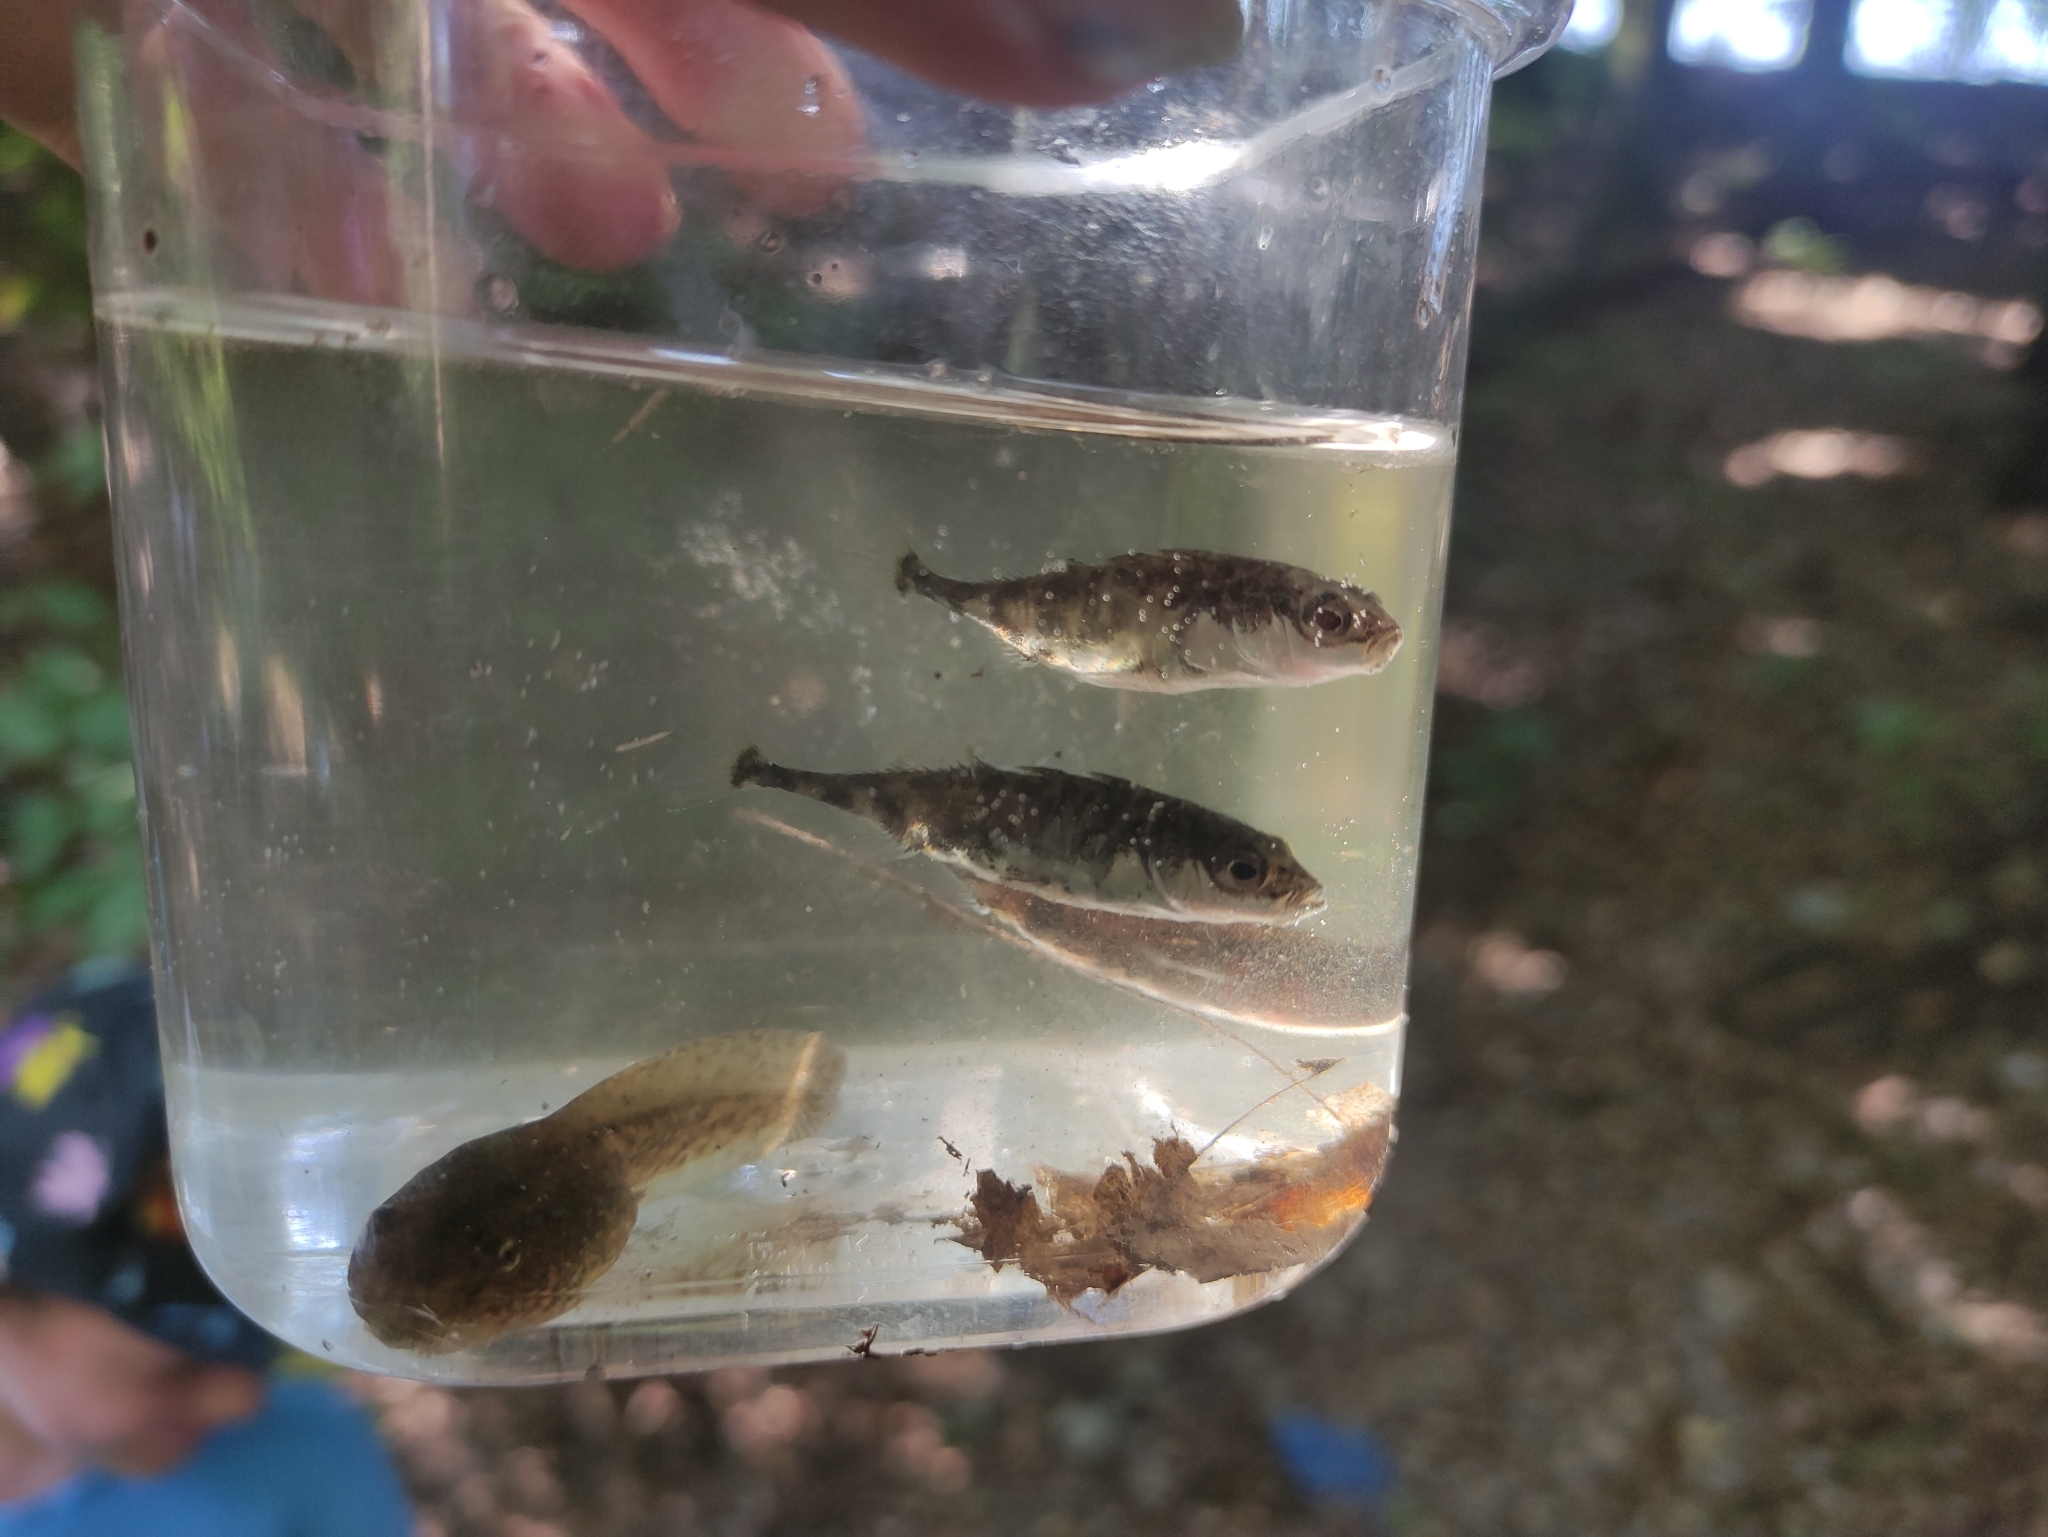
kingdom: Animalia
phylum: Chordata
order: Gasterosteiformes
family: Gasterosteidae
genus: Gasterosteus
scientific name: Gasterosteus aculeatus
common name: Three-spined stickleback
